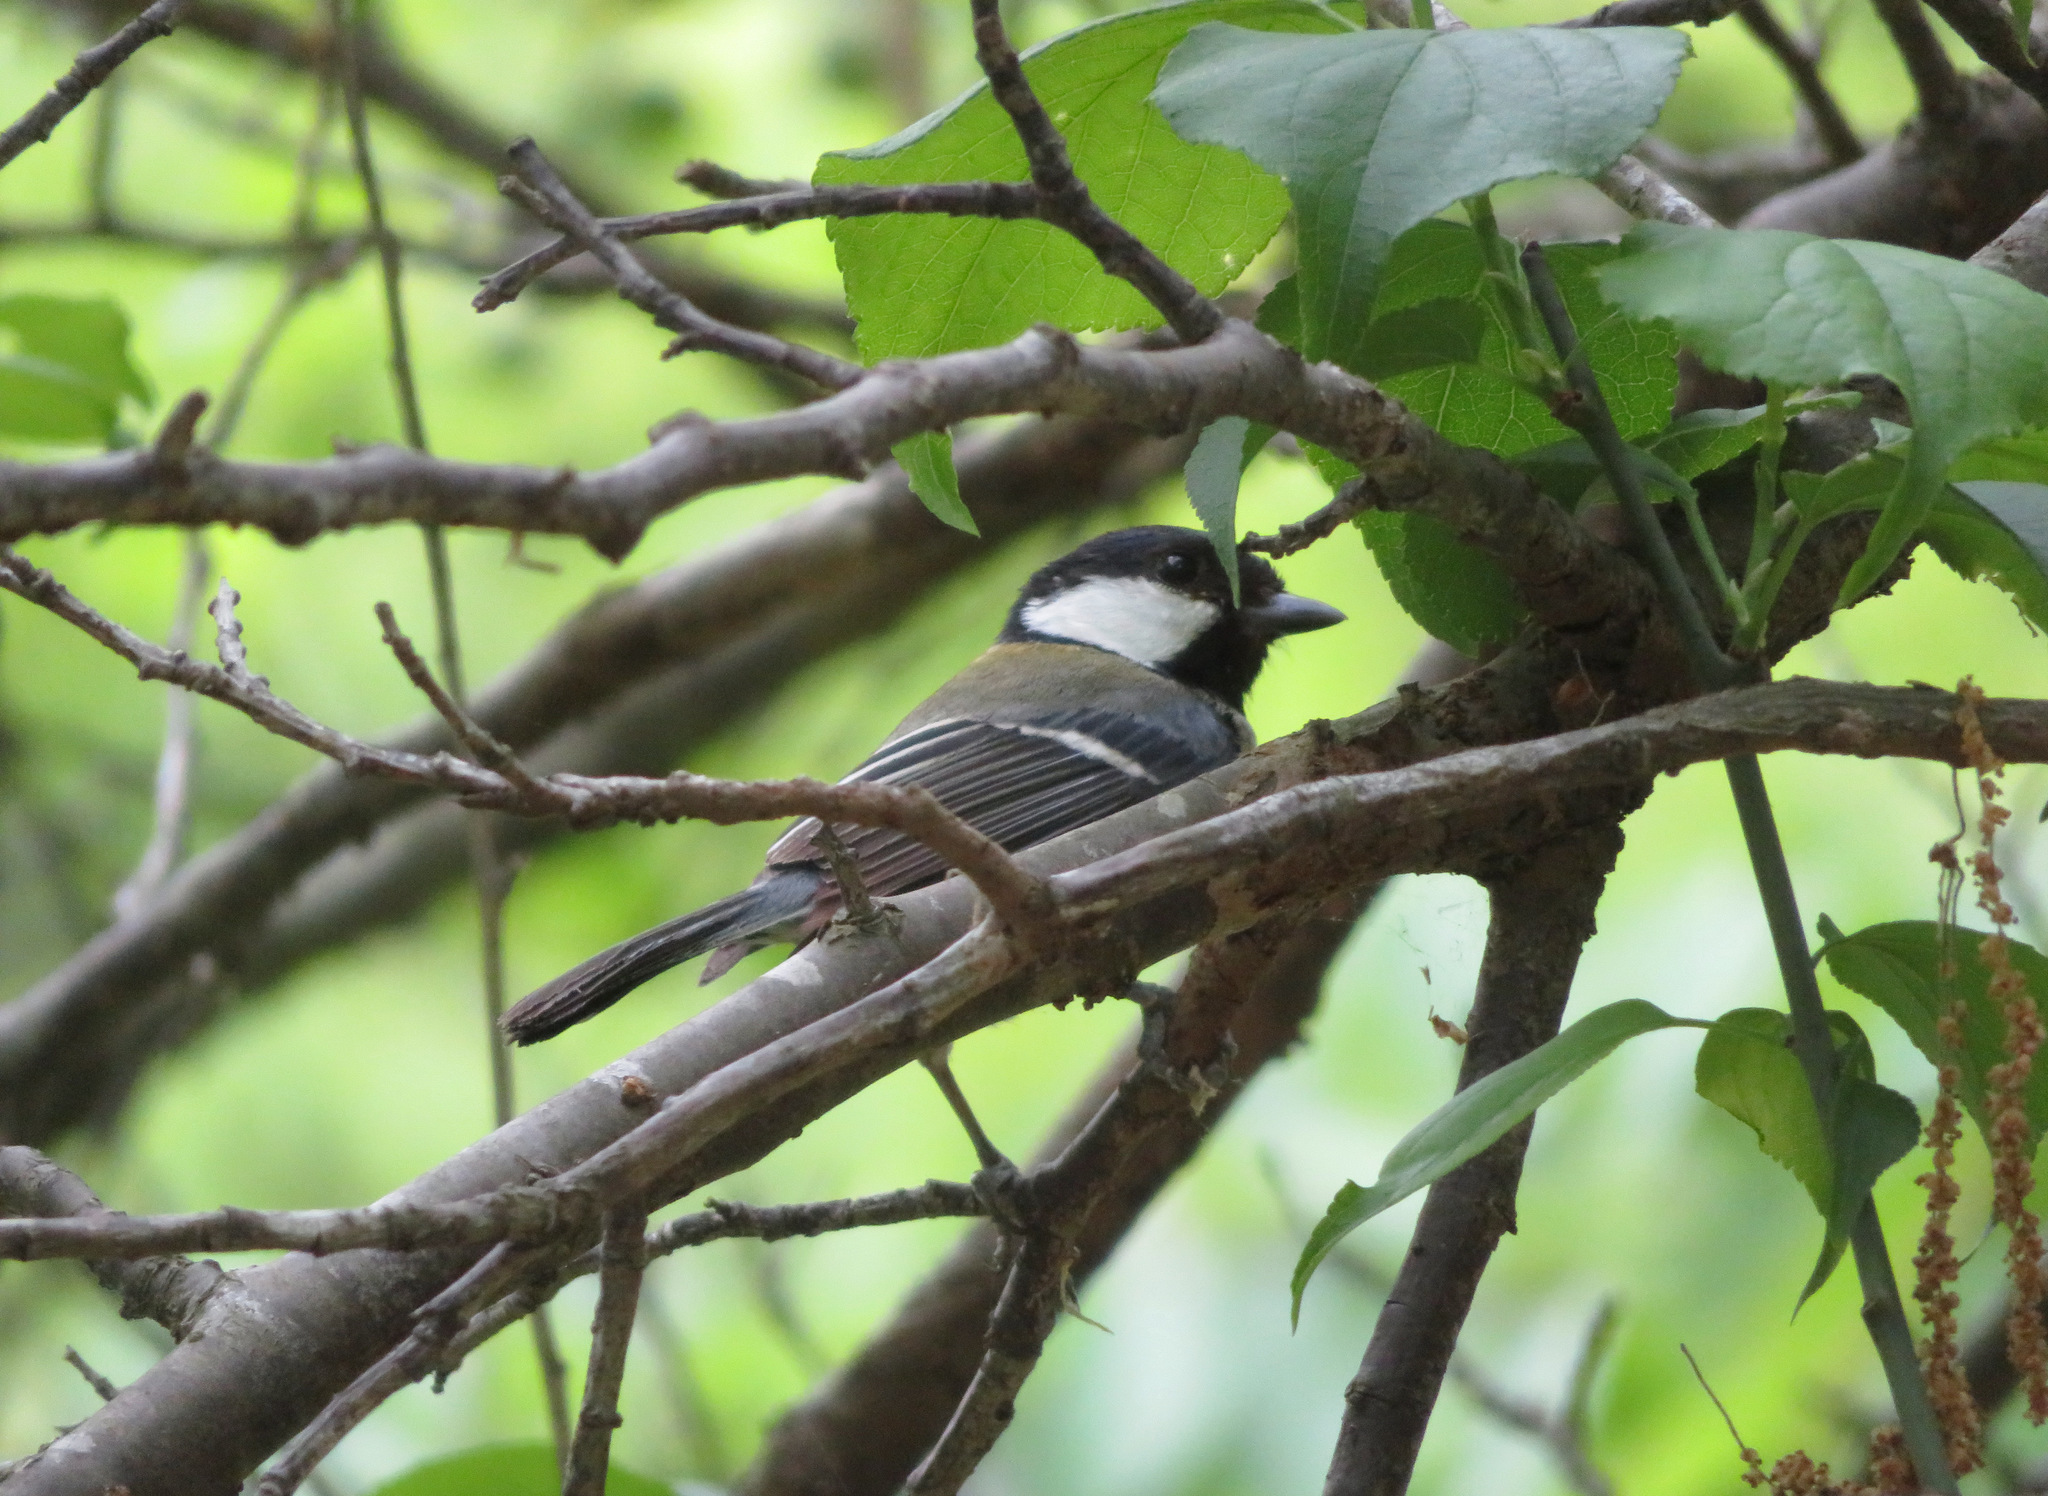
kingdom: Animalia
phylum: Chordata
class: Aves
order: Passeriformes
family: Paridae
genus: Parus
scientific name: Parus minor
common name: Japanese tit
